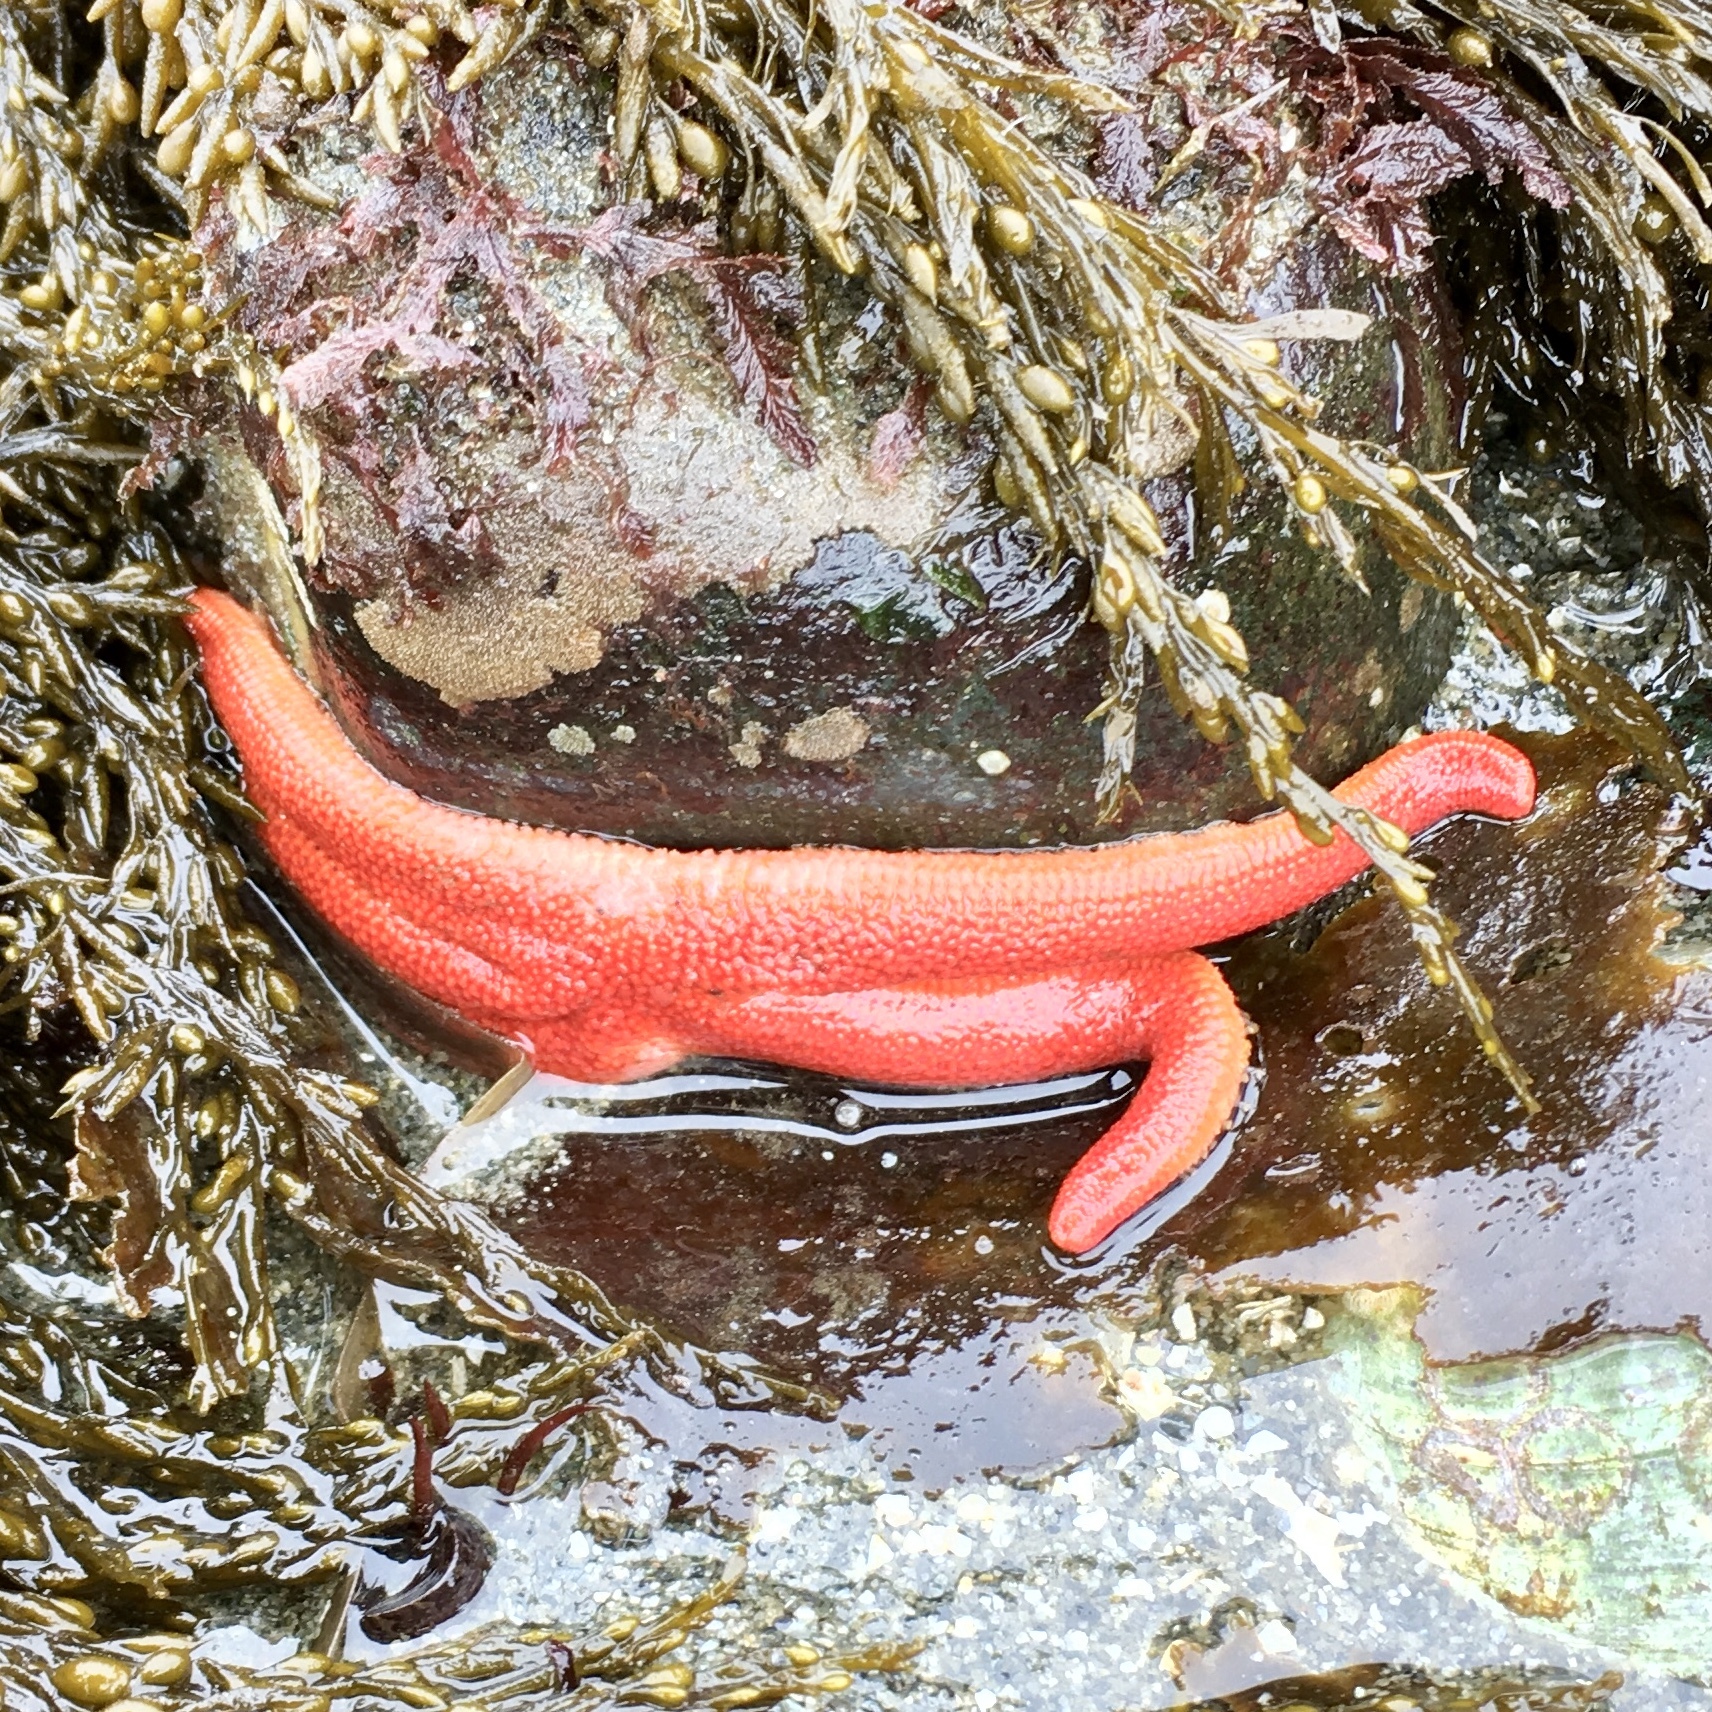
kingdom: Animalia
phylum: Echinodermata
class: Asteroidea
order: Spinulosida
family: Echinasteridae
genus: Henricia
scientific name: Henricia
